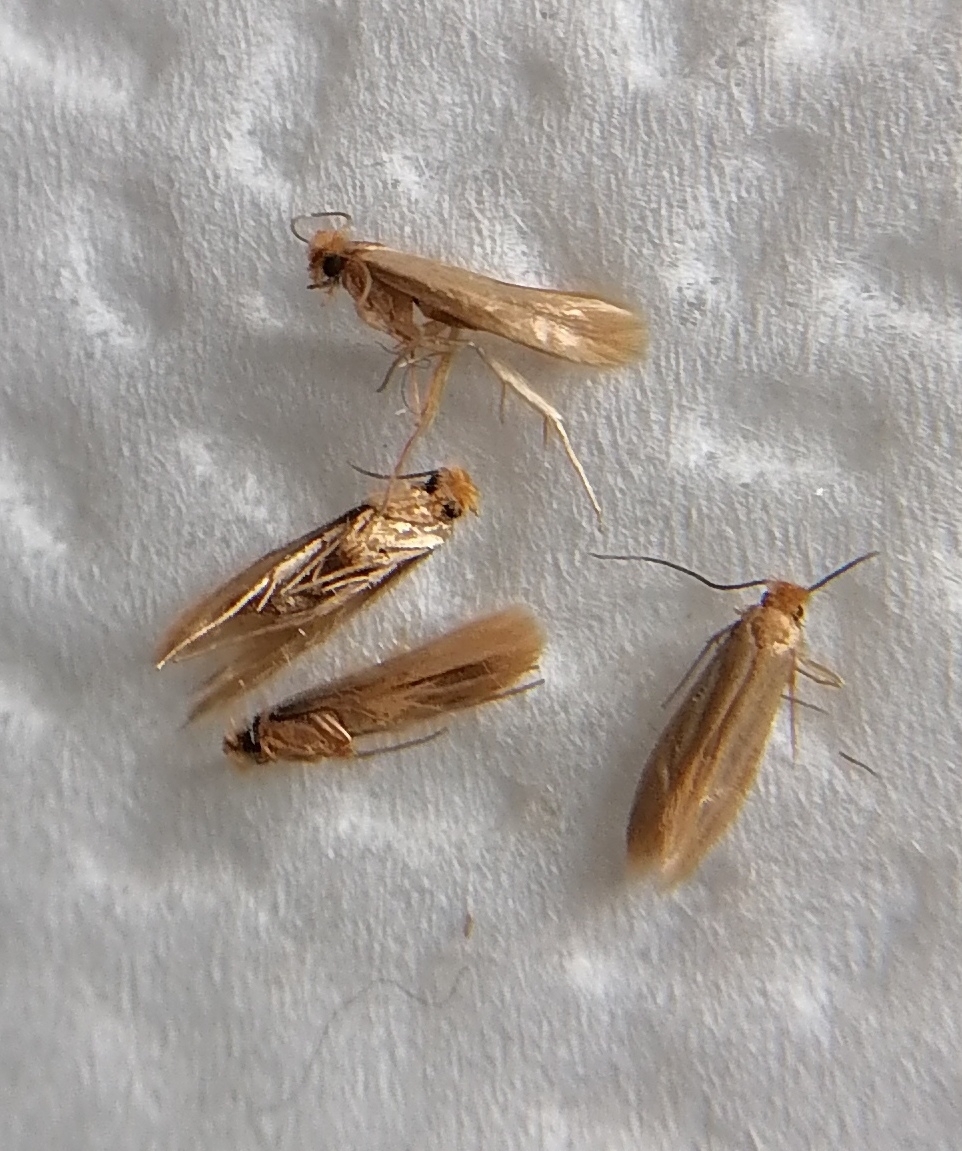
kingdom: Animalia
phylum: Arthropoda
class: Insecta
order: Lepidoptera
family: Tineidae
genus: Tineola
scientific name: Tineola bisselliella
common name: Webbing clothes moth
